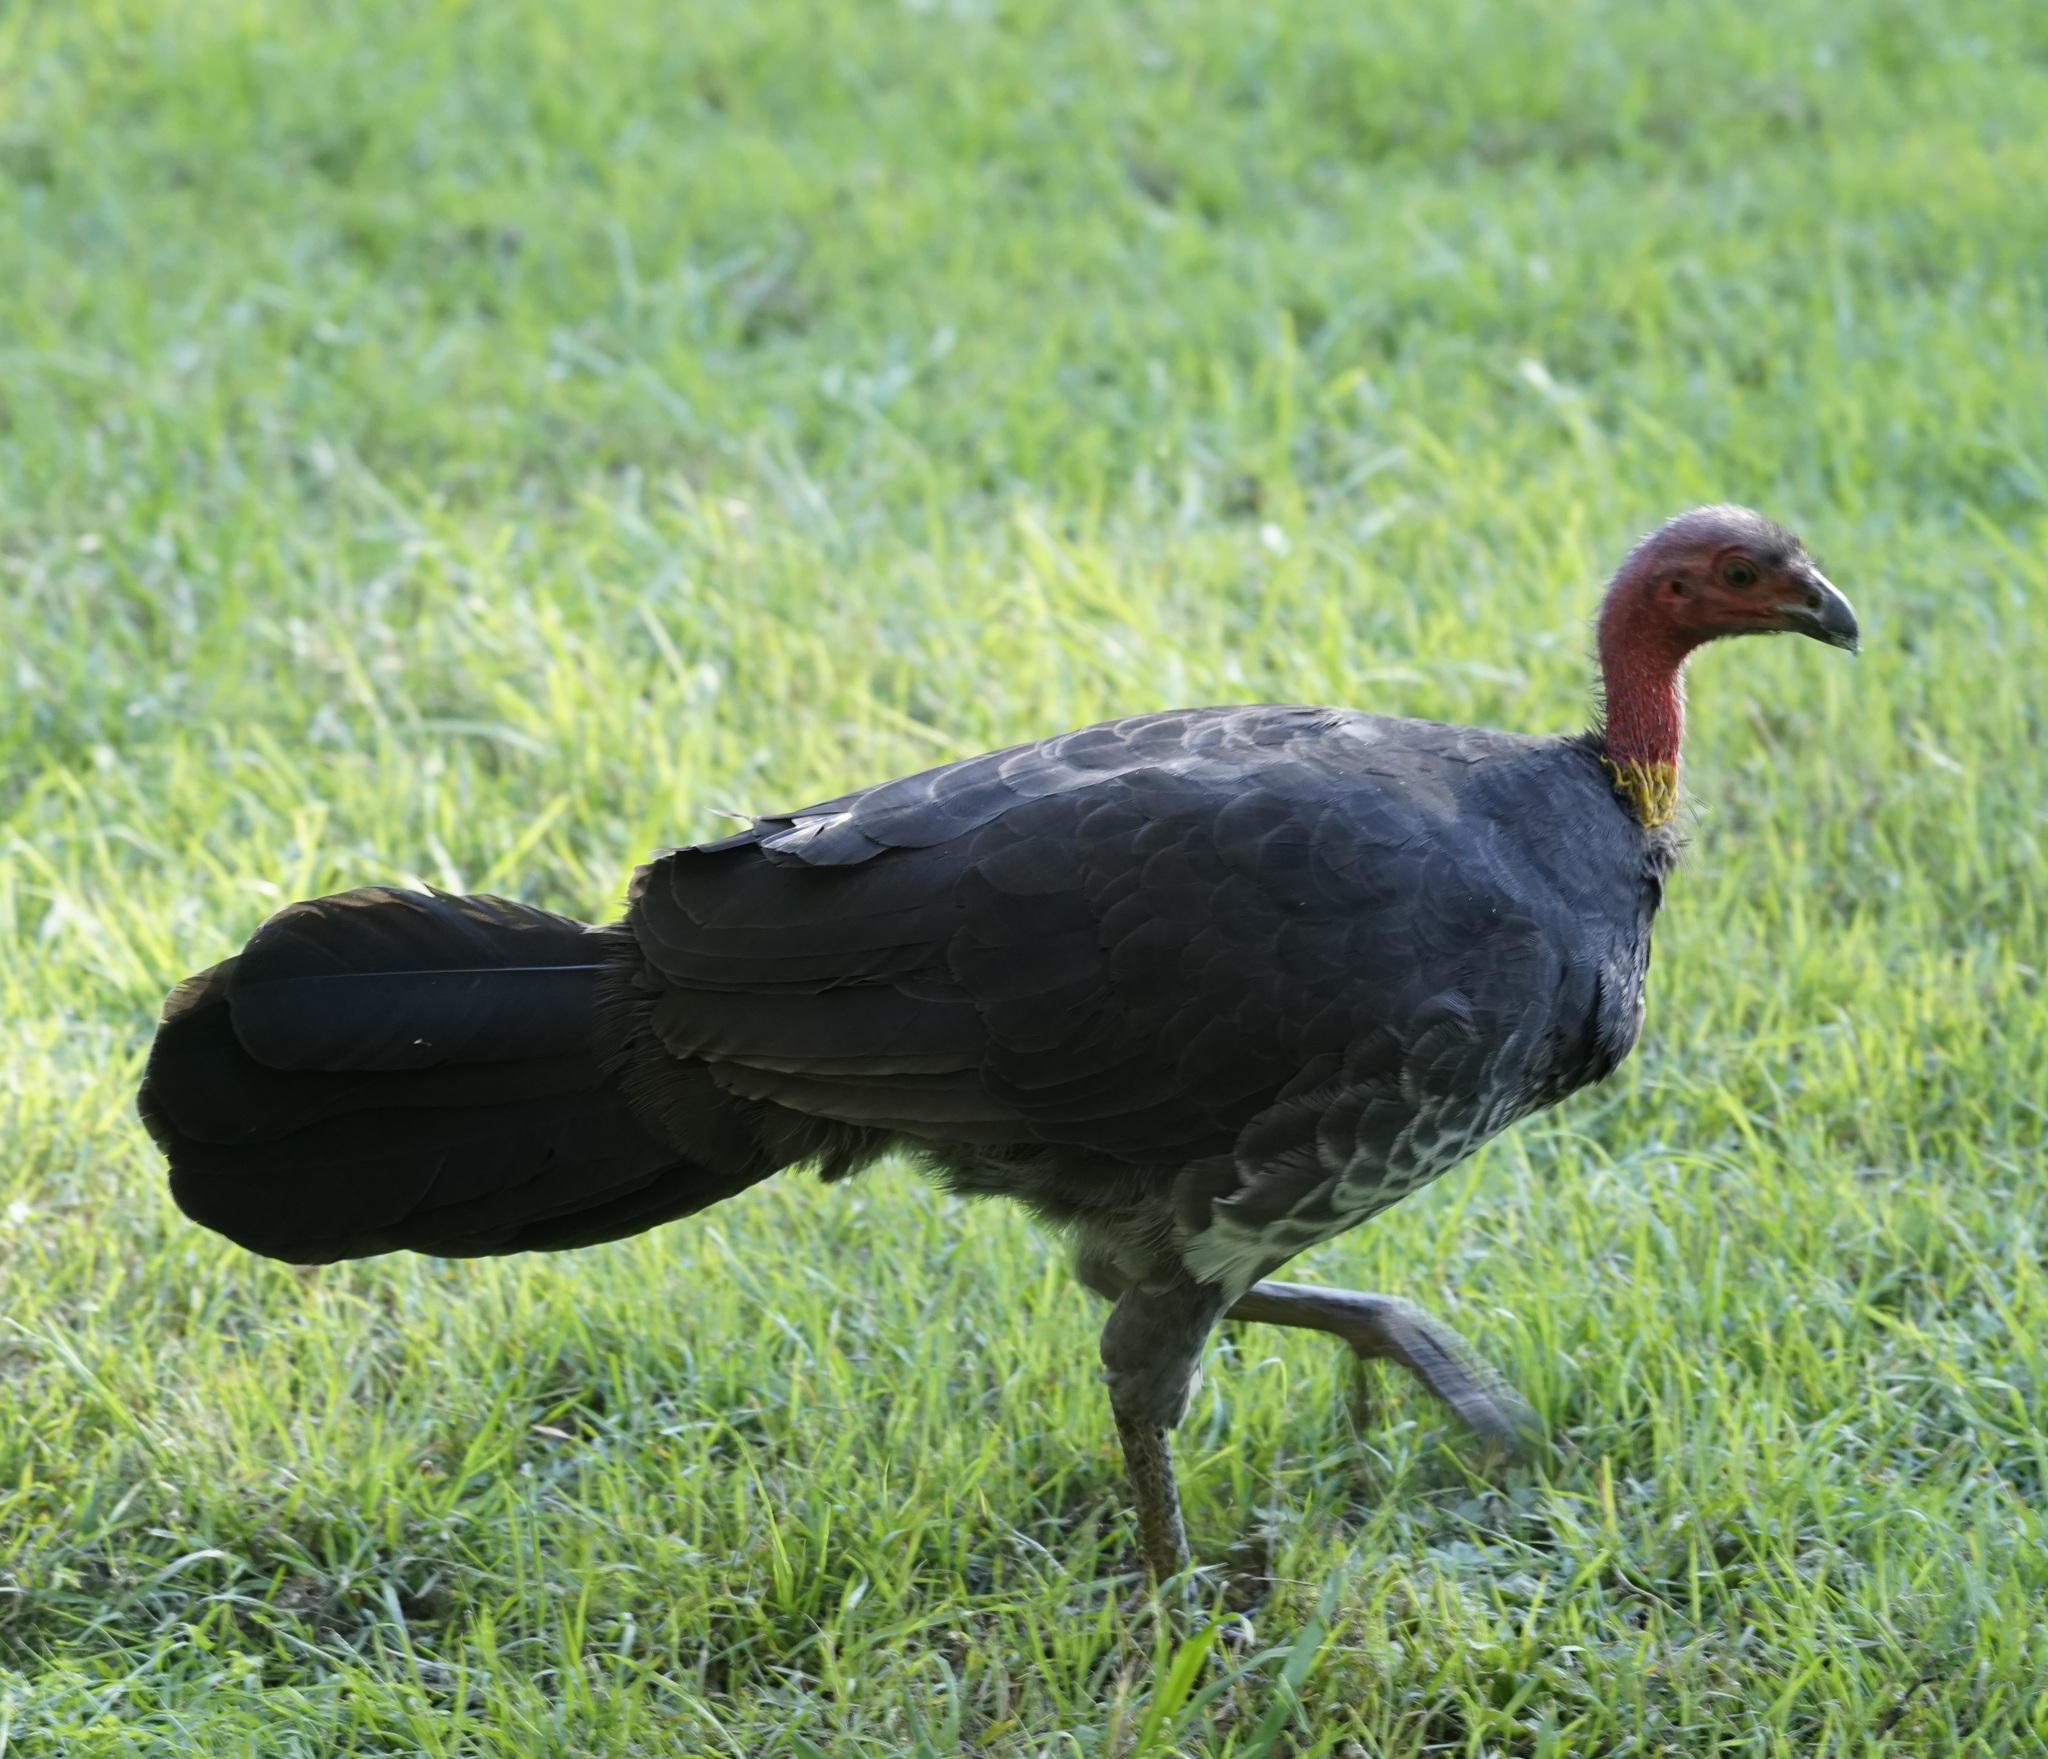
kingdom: Animalia
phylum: Chordata
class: Aves
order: Galliformes
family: Megapodiidae
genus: Alectura
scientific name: Alectura lathami
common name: Australian brushturkey
